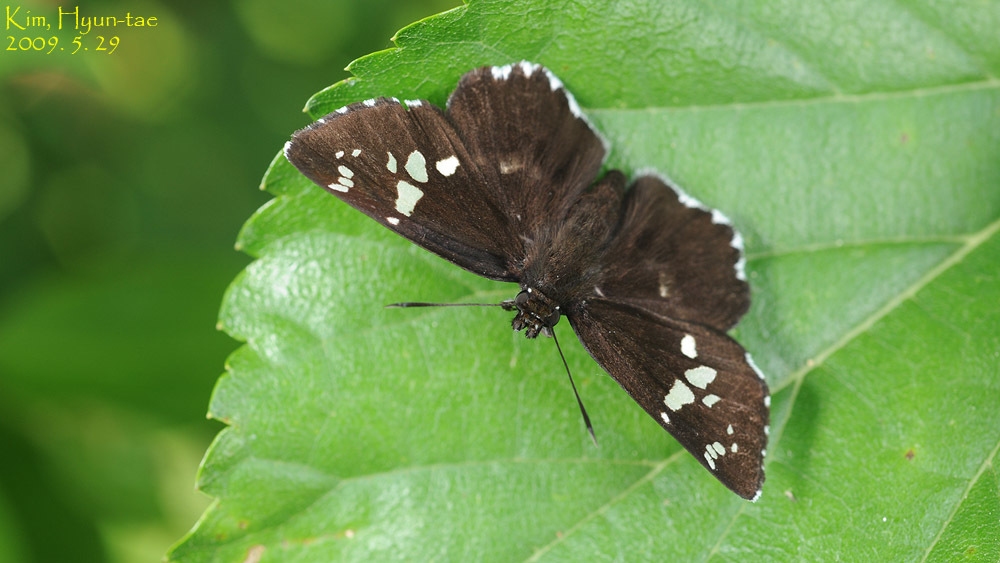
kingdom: Animalia
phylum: Arthropoda
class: Insecta
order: Lepidoptera
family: Hesperiidae
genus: Daimio
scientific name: Daimio tethys
